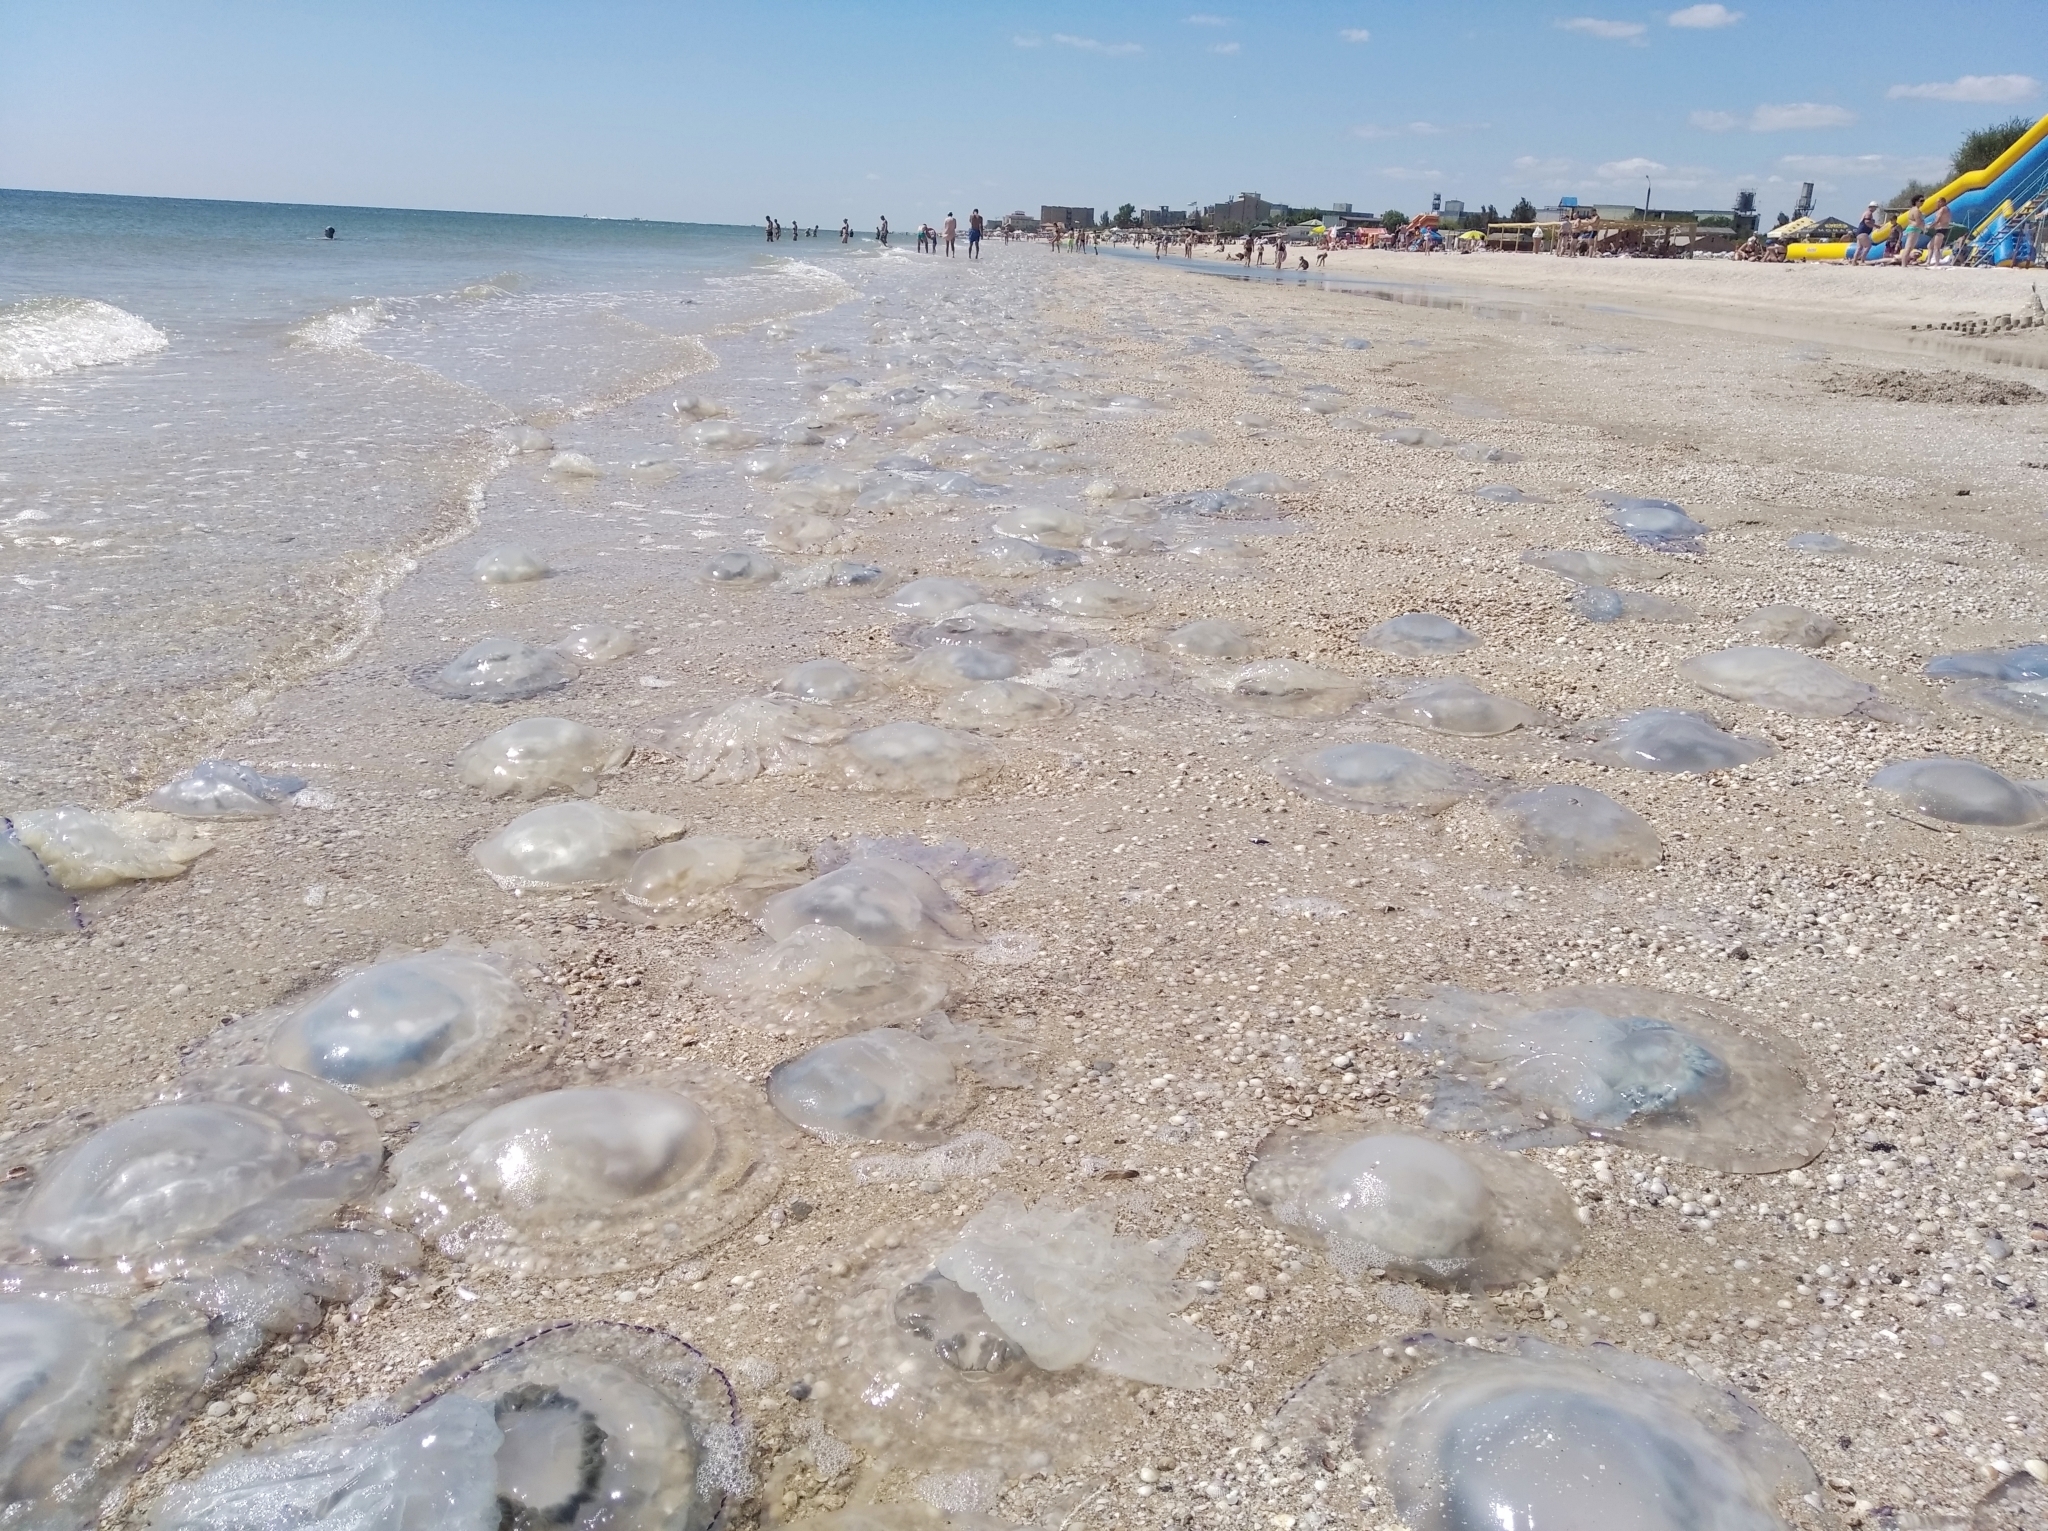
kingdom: Animalia
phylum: Cnidaria
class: Scyphozoa
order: Rhizostomeae
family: Rhizostomatidae
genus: Rhizostoma
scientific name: Rhizostoma pulmo
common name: Barrel jellyfish
